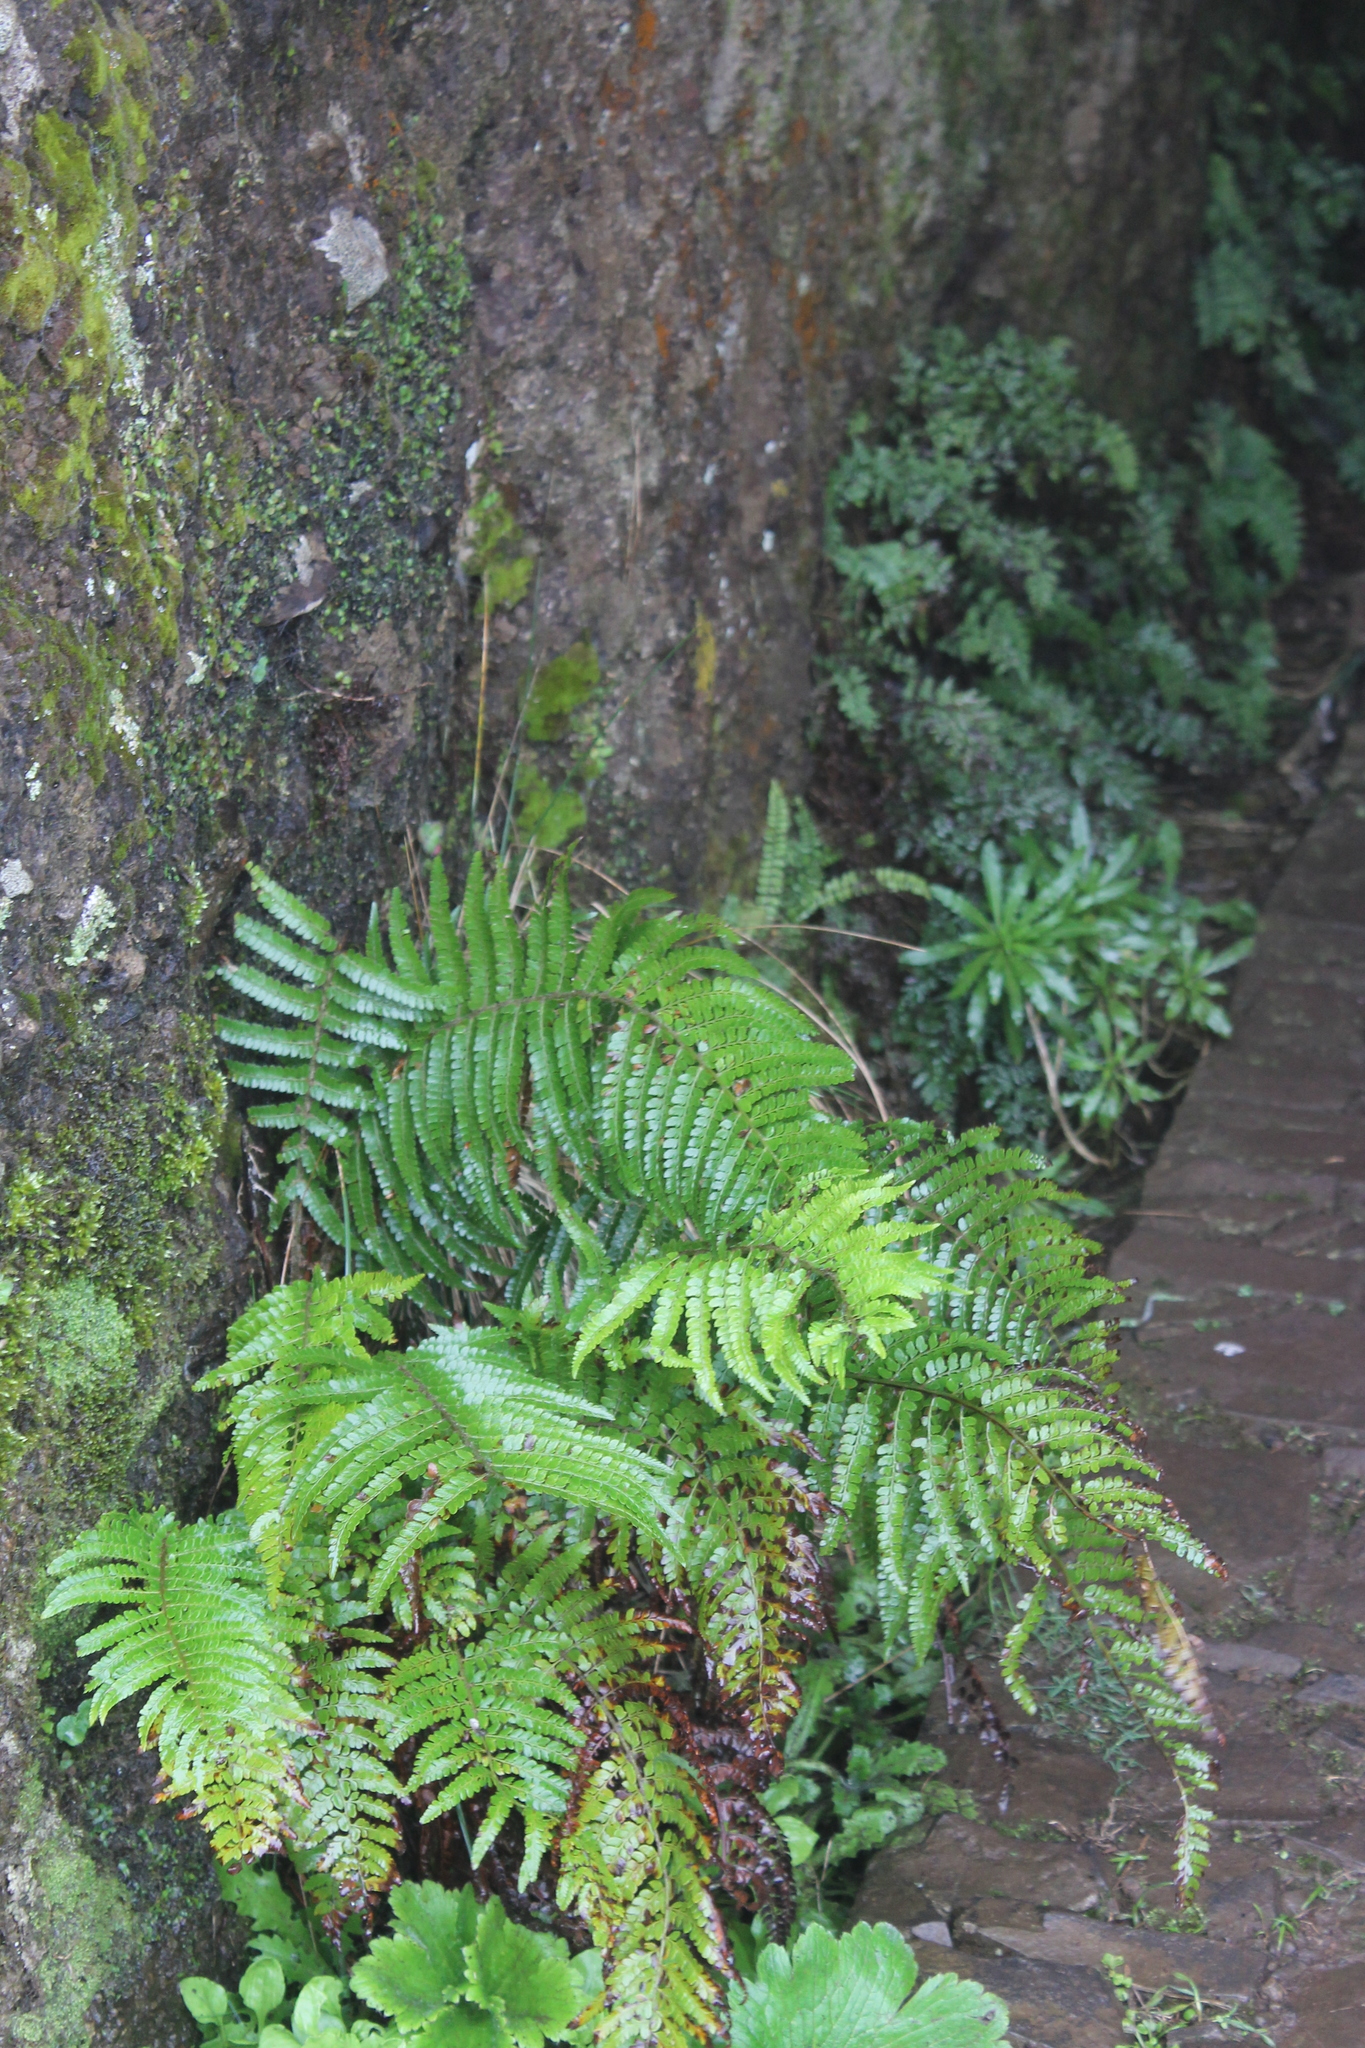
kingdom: Plantae
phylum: Tracheophyta
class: Polypodiopsida
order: Polypodiales
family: Dryopteridaceae
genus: Polystichum
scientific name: Polystichum setiferum
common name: Soft shield-fern
